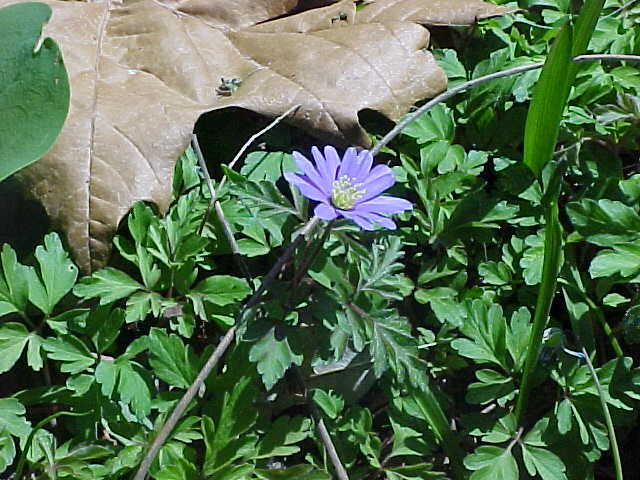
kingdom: Plantae
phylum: Tracheophyta
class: Magnoliopsida
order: Ranunculales
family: Ranunculaceae
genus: Anemone
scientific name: Anemone blanda
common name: Balkan anemone
